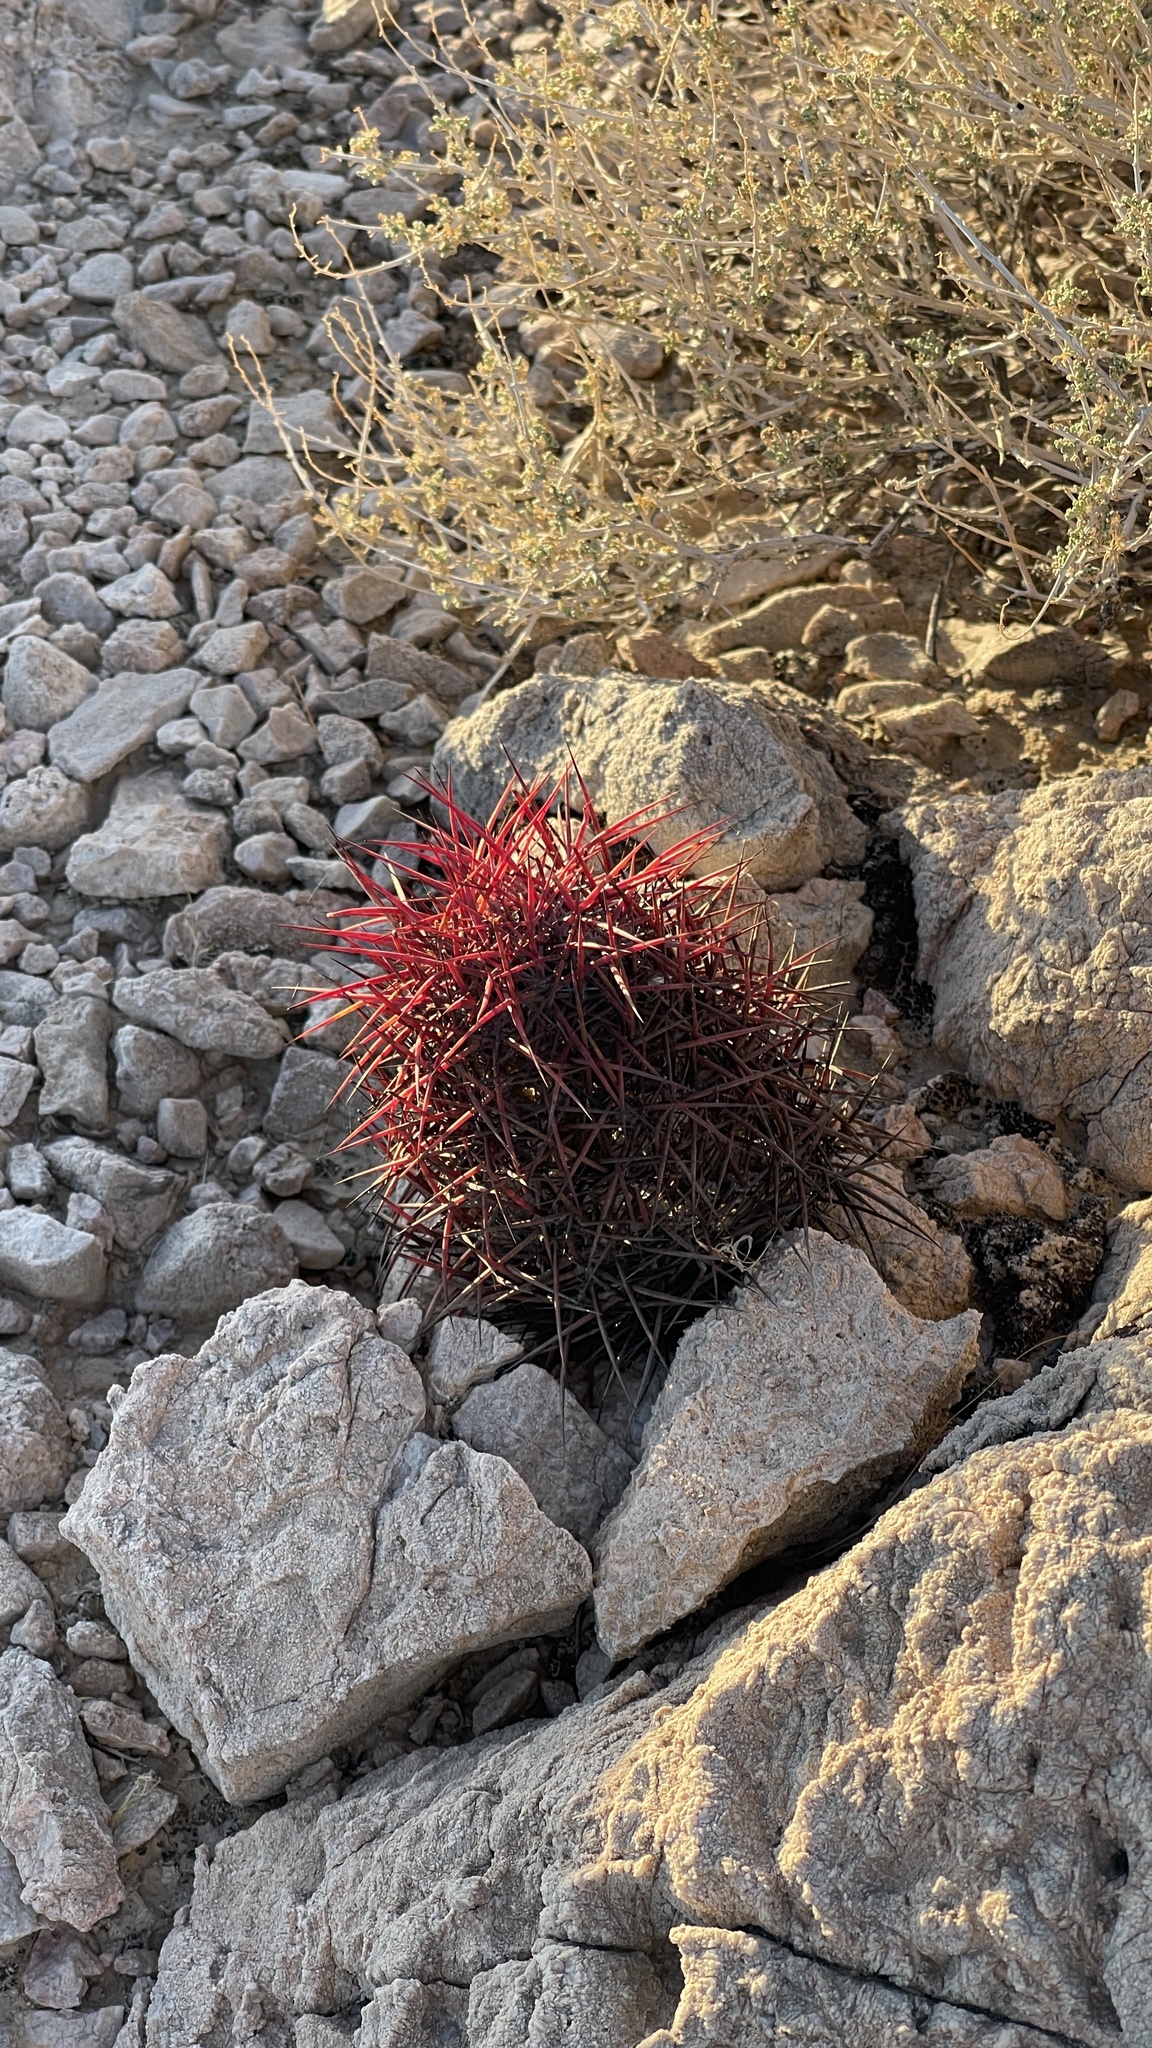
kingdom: Plantae
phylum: Tracheophyta
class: Magnoliopsida
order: Caryophyllales
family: Cactaceae
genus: Sclerocactus
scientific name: Sclerocactus johnsonii
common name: Eight-spine fishhook cactus
